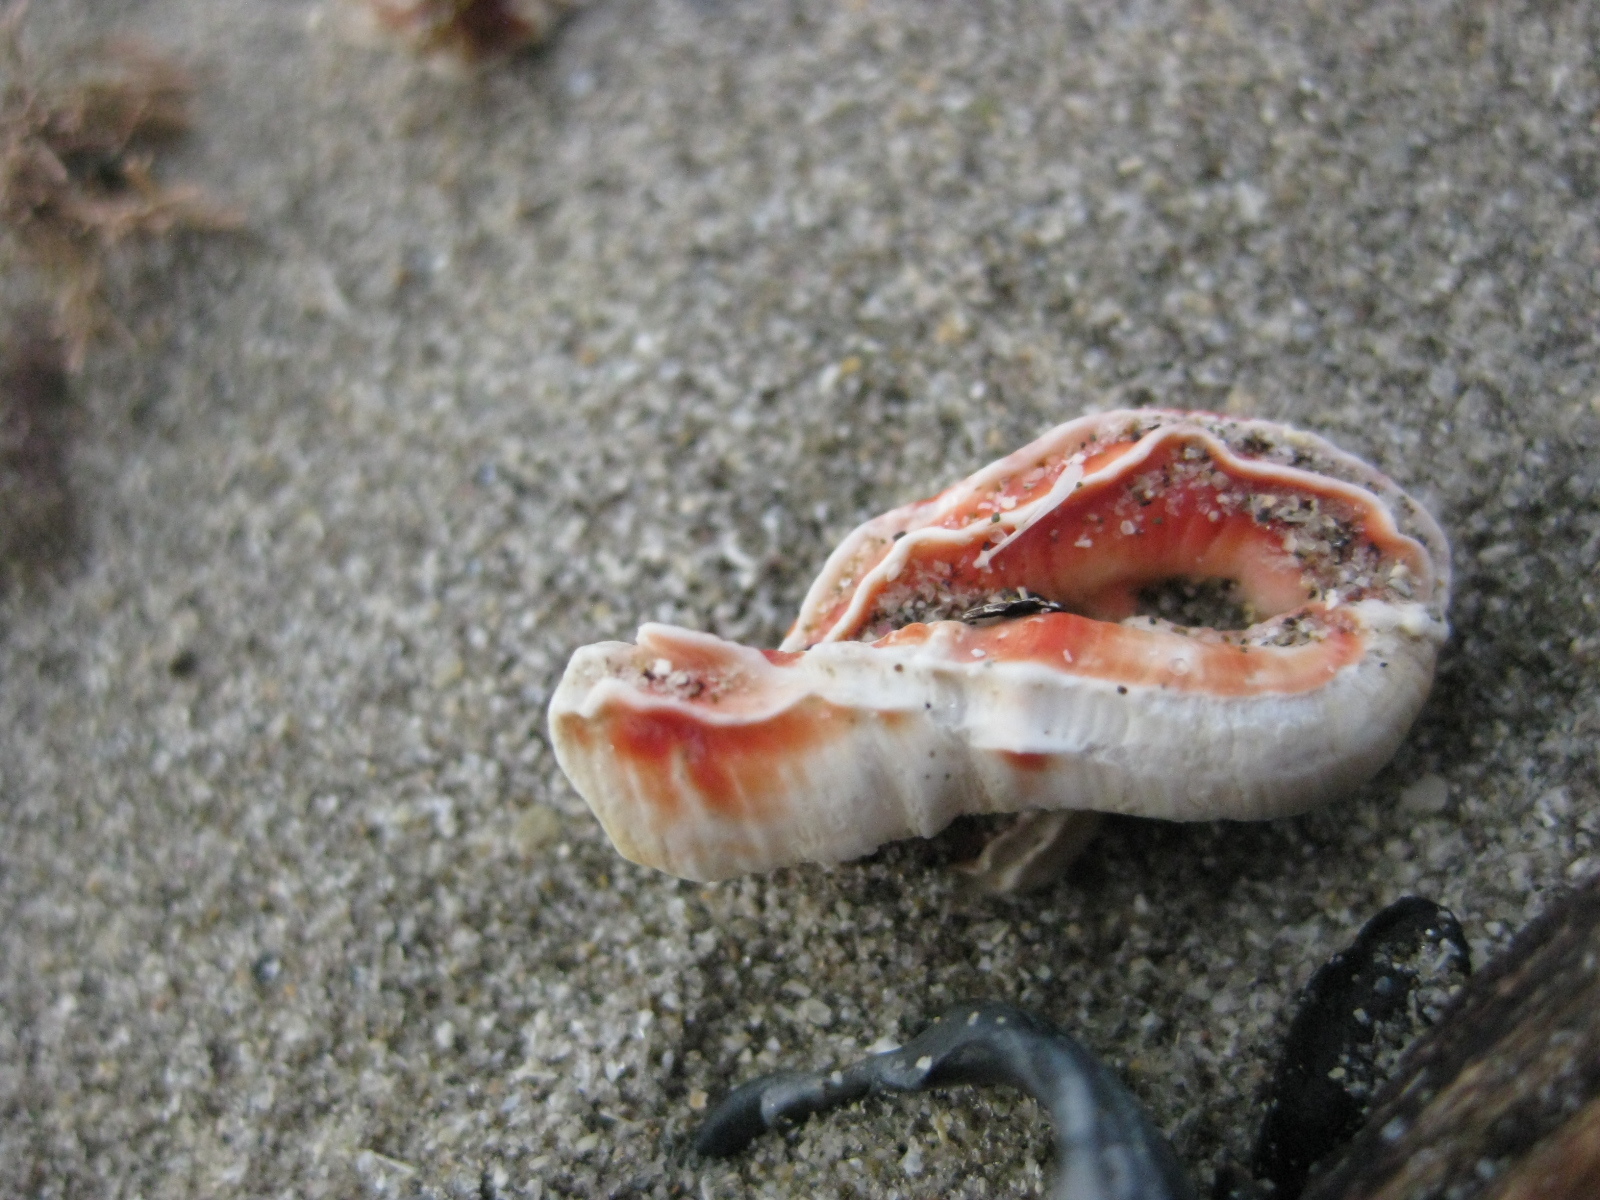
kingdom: Animalia
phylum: Annelida
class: Polychaeta
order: Sabellida
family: Serpulidae
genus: Galeolaria
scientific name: Galeolaria hystrix
